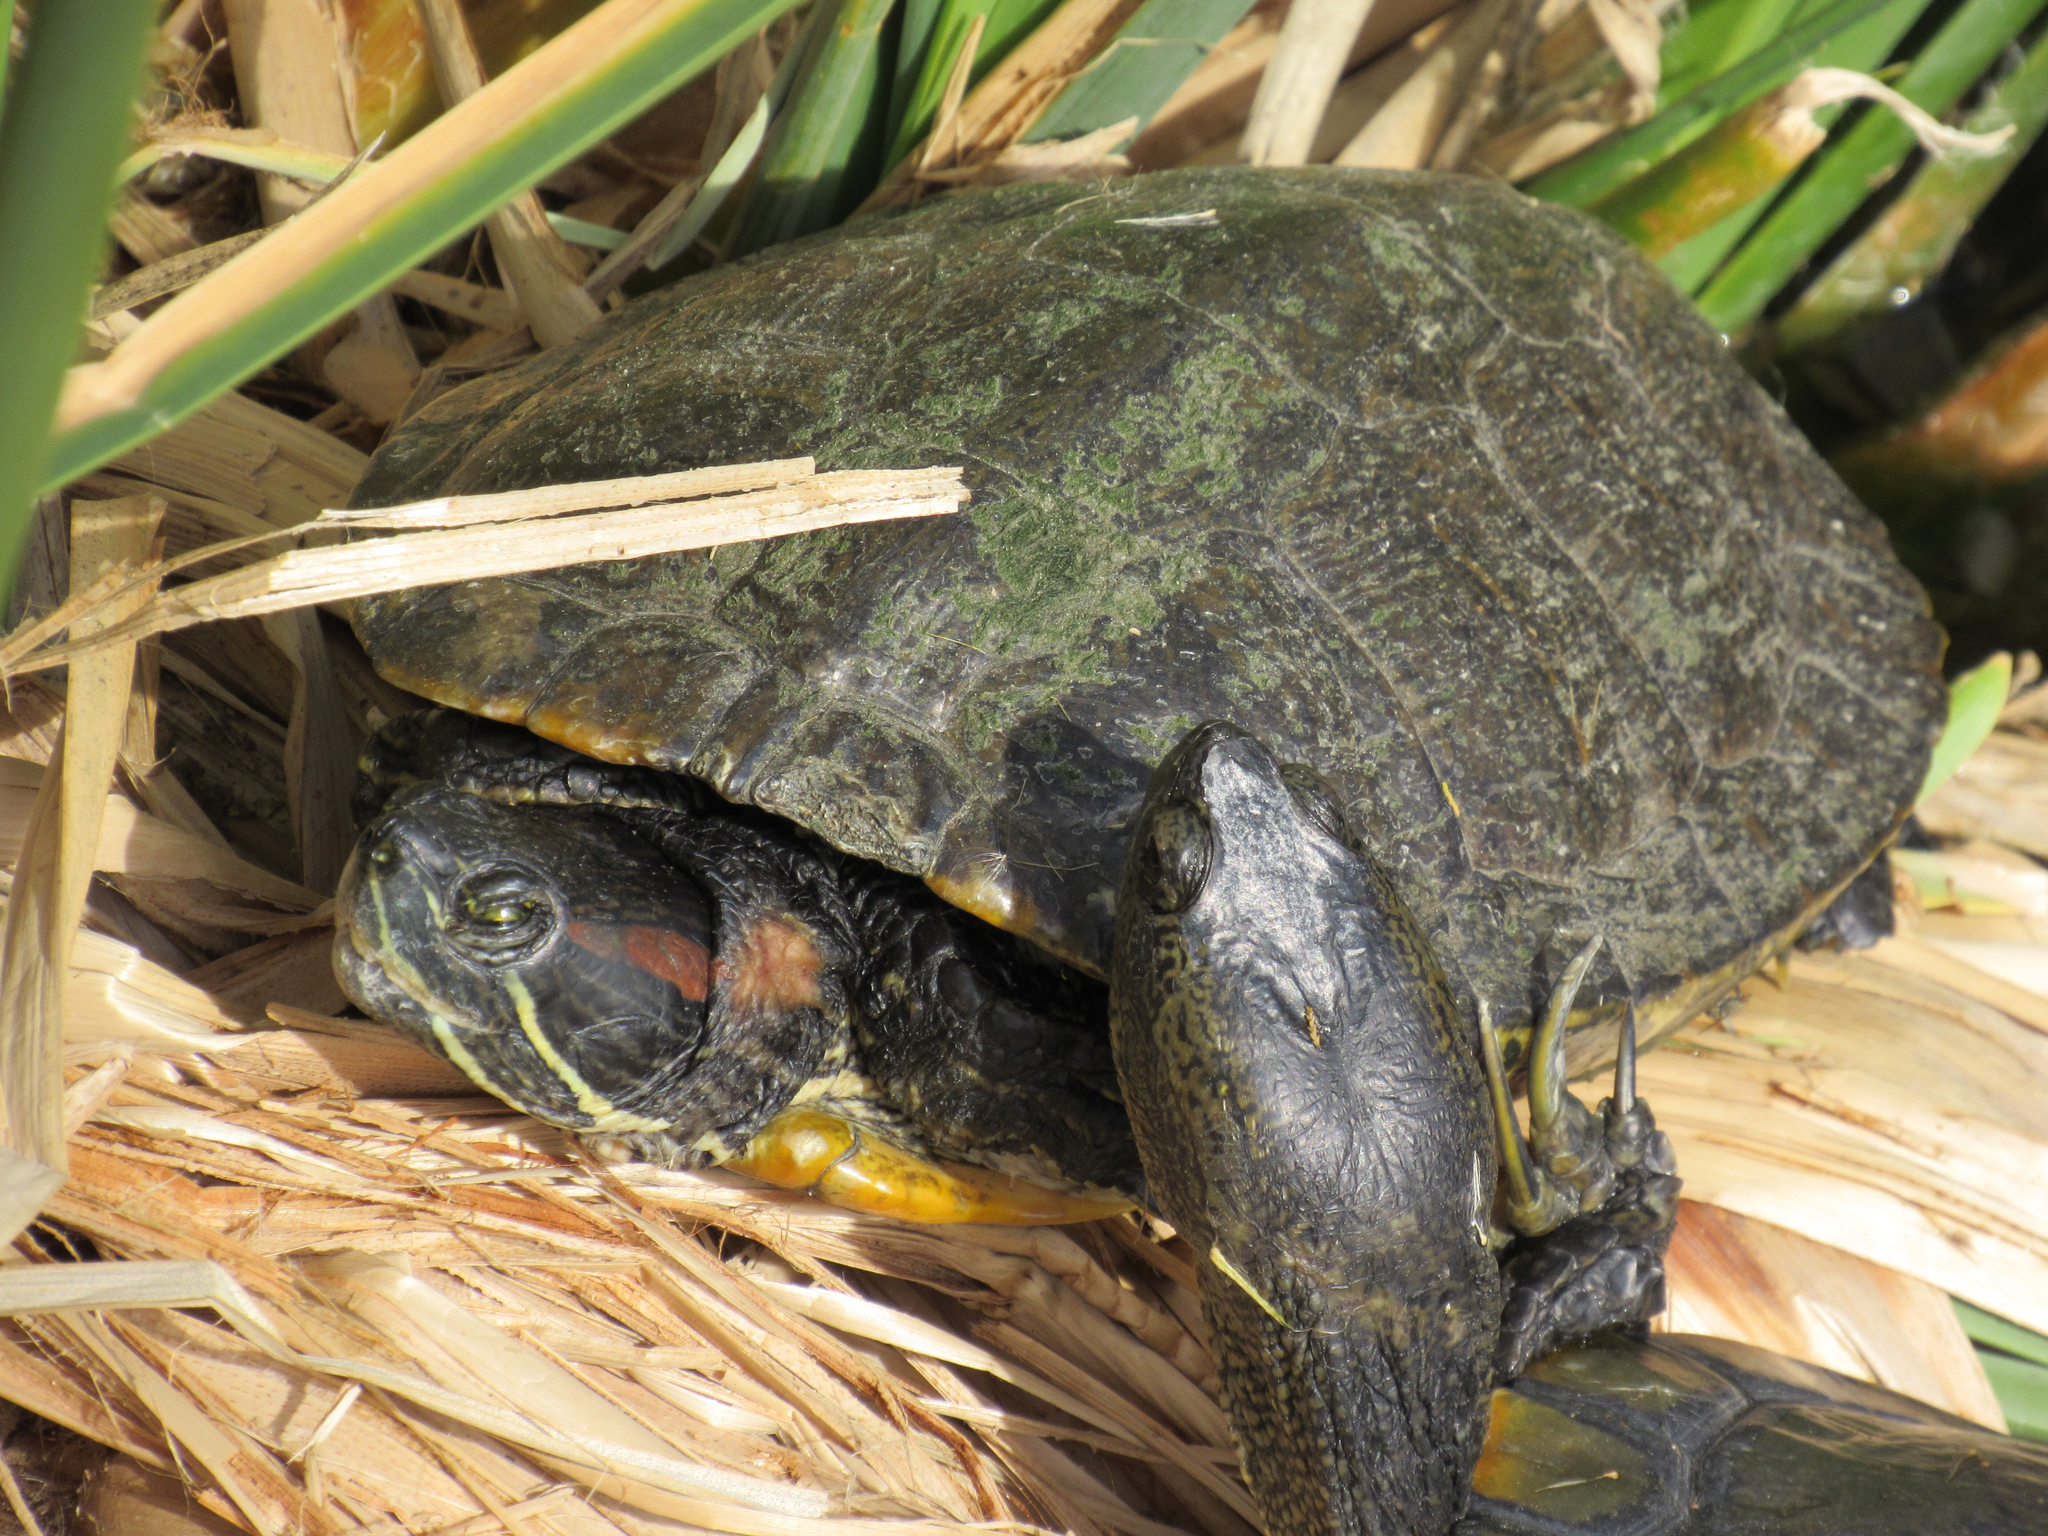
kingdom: Animalia
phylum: Chordata
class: Testudines
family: Emydidae
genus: Trachemys
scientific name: Trachemys scripta
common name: Slider
